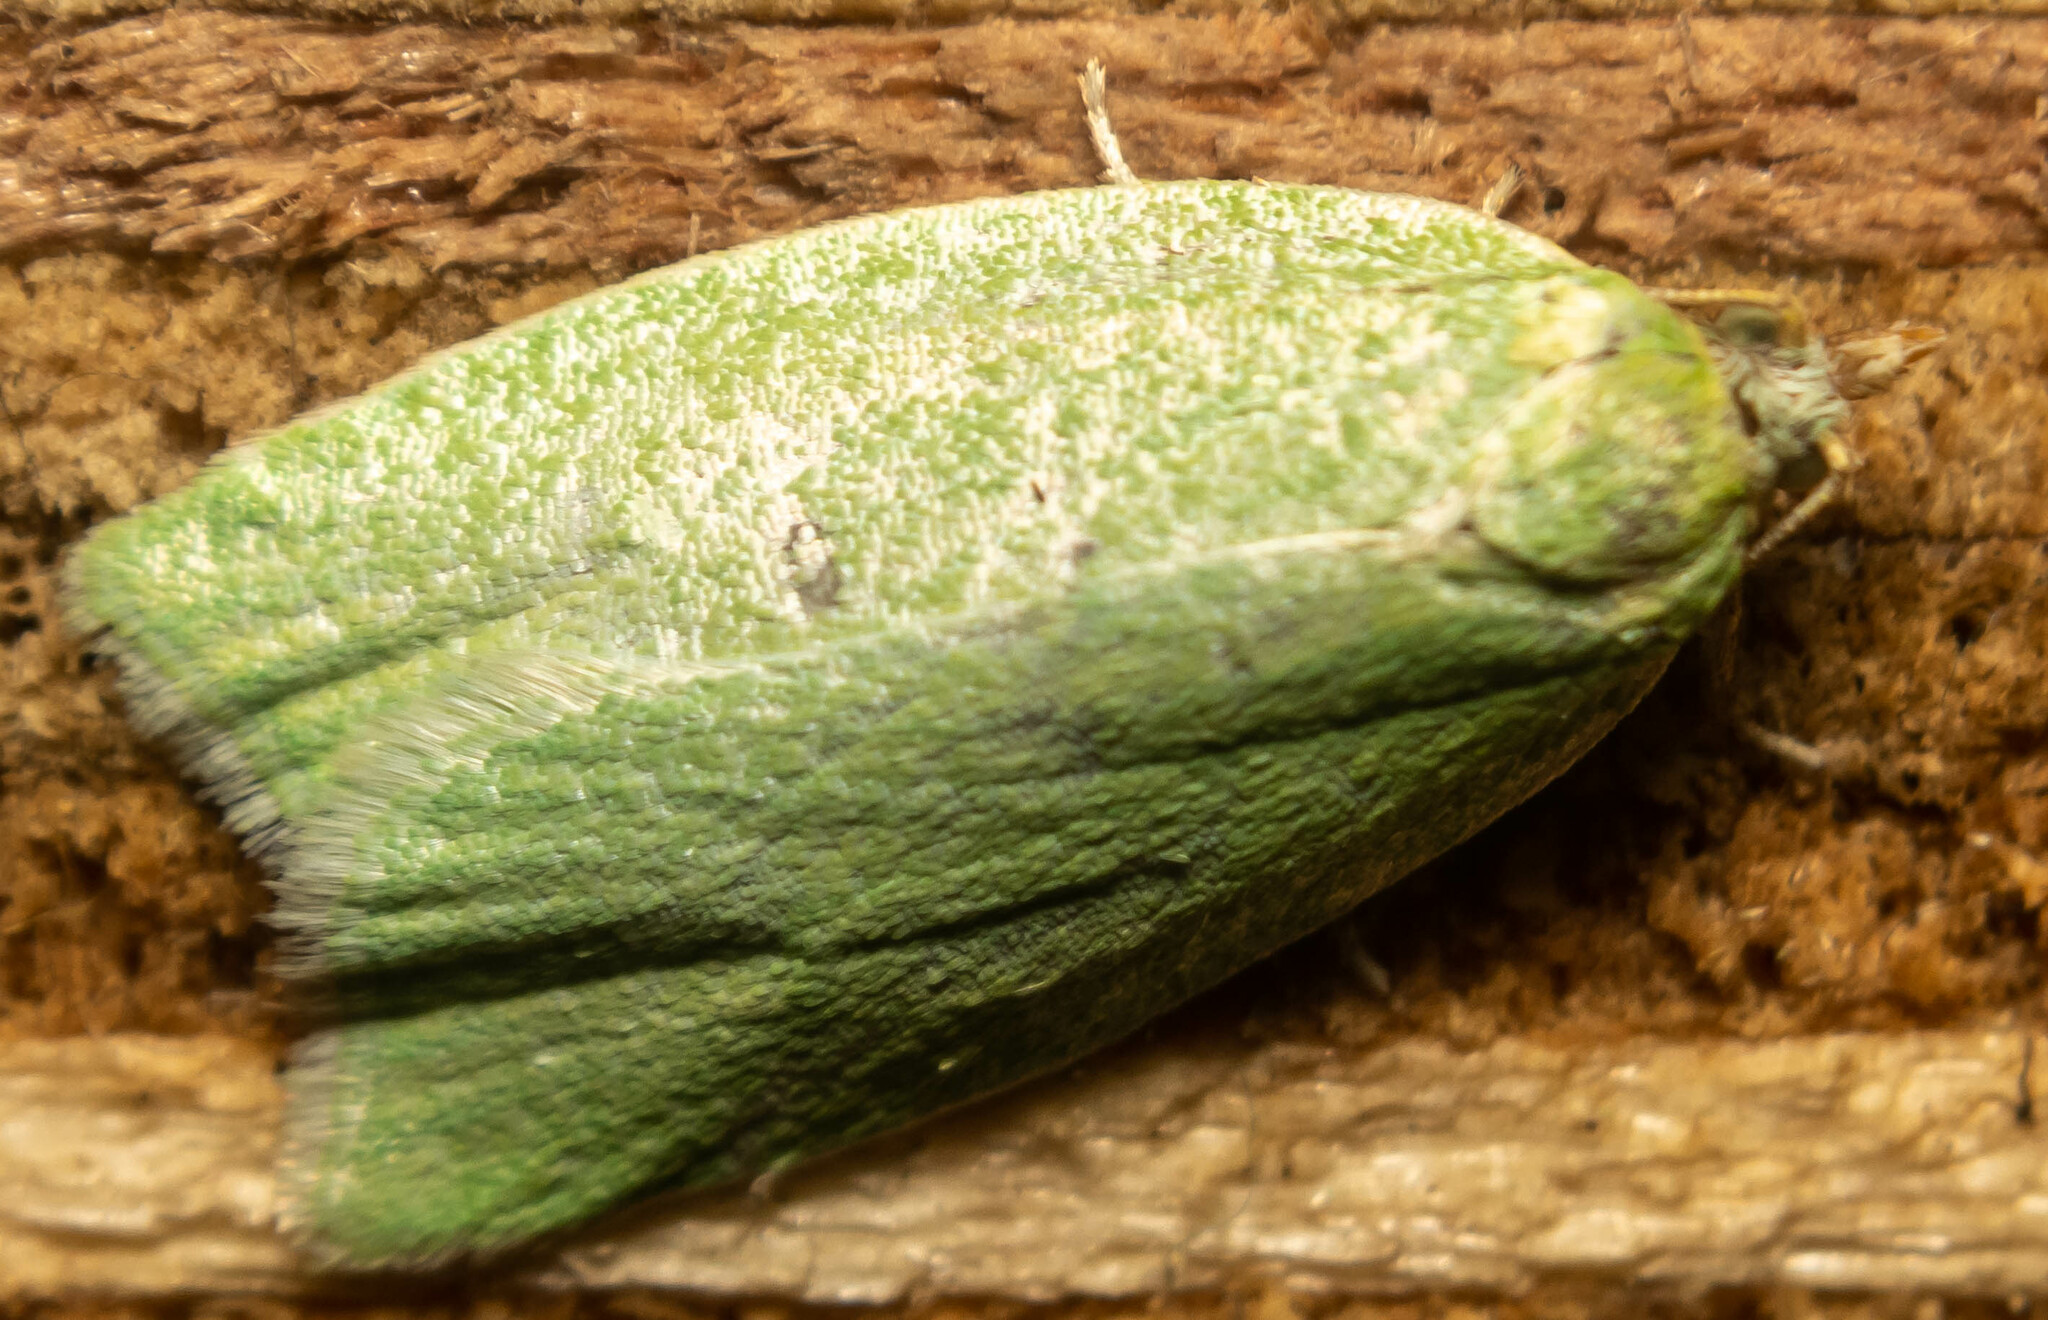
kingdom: Animalia
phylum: Arthropoda
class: Insecta
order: Lepidoptera
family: Tortricidae
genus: Tortrix
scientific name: Tortrix viridana
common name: Green oak tortrix
